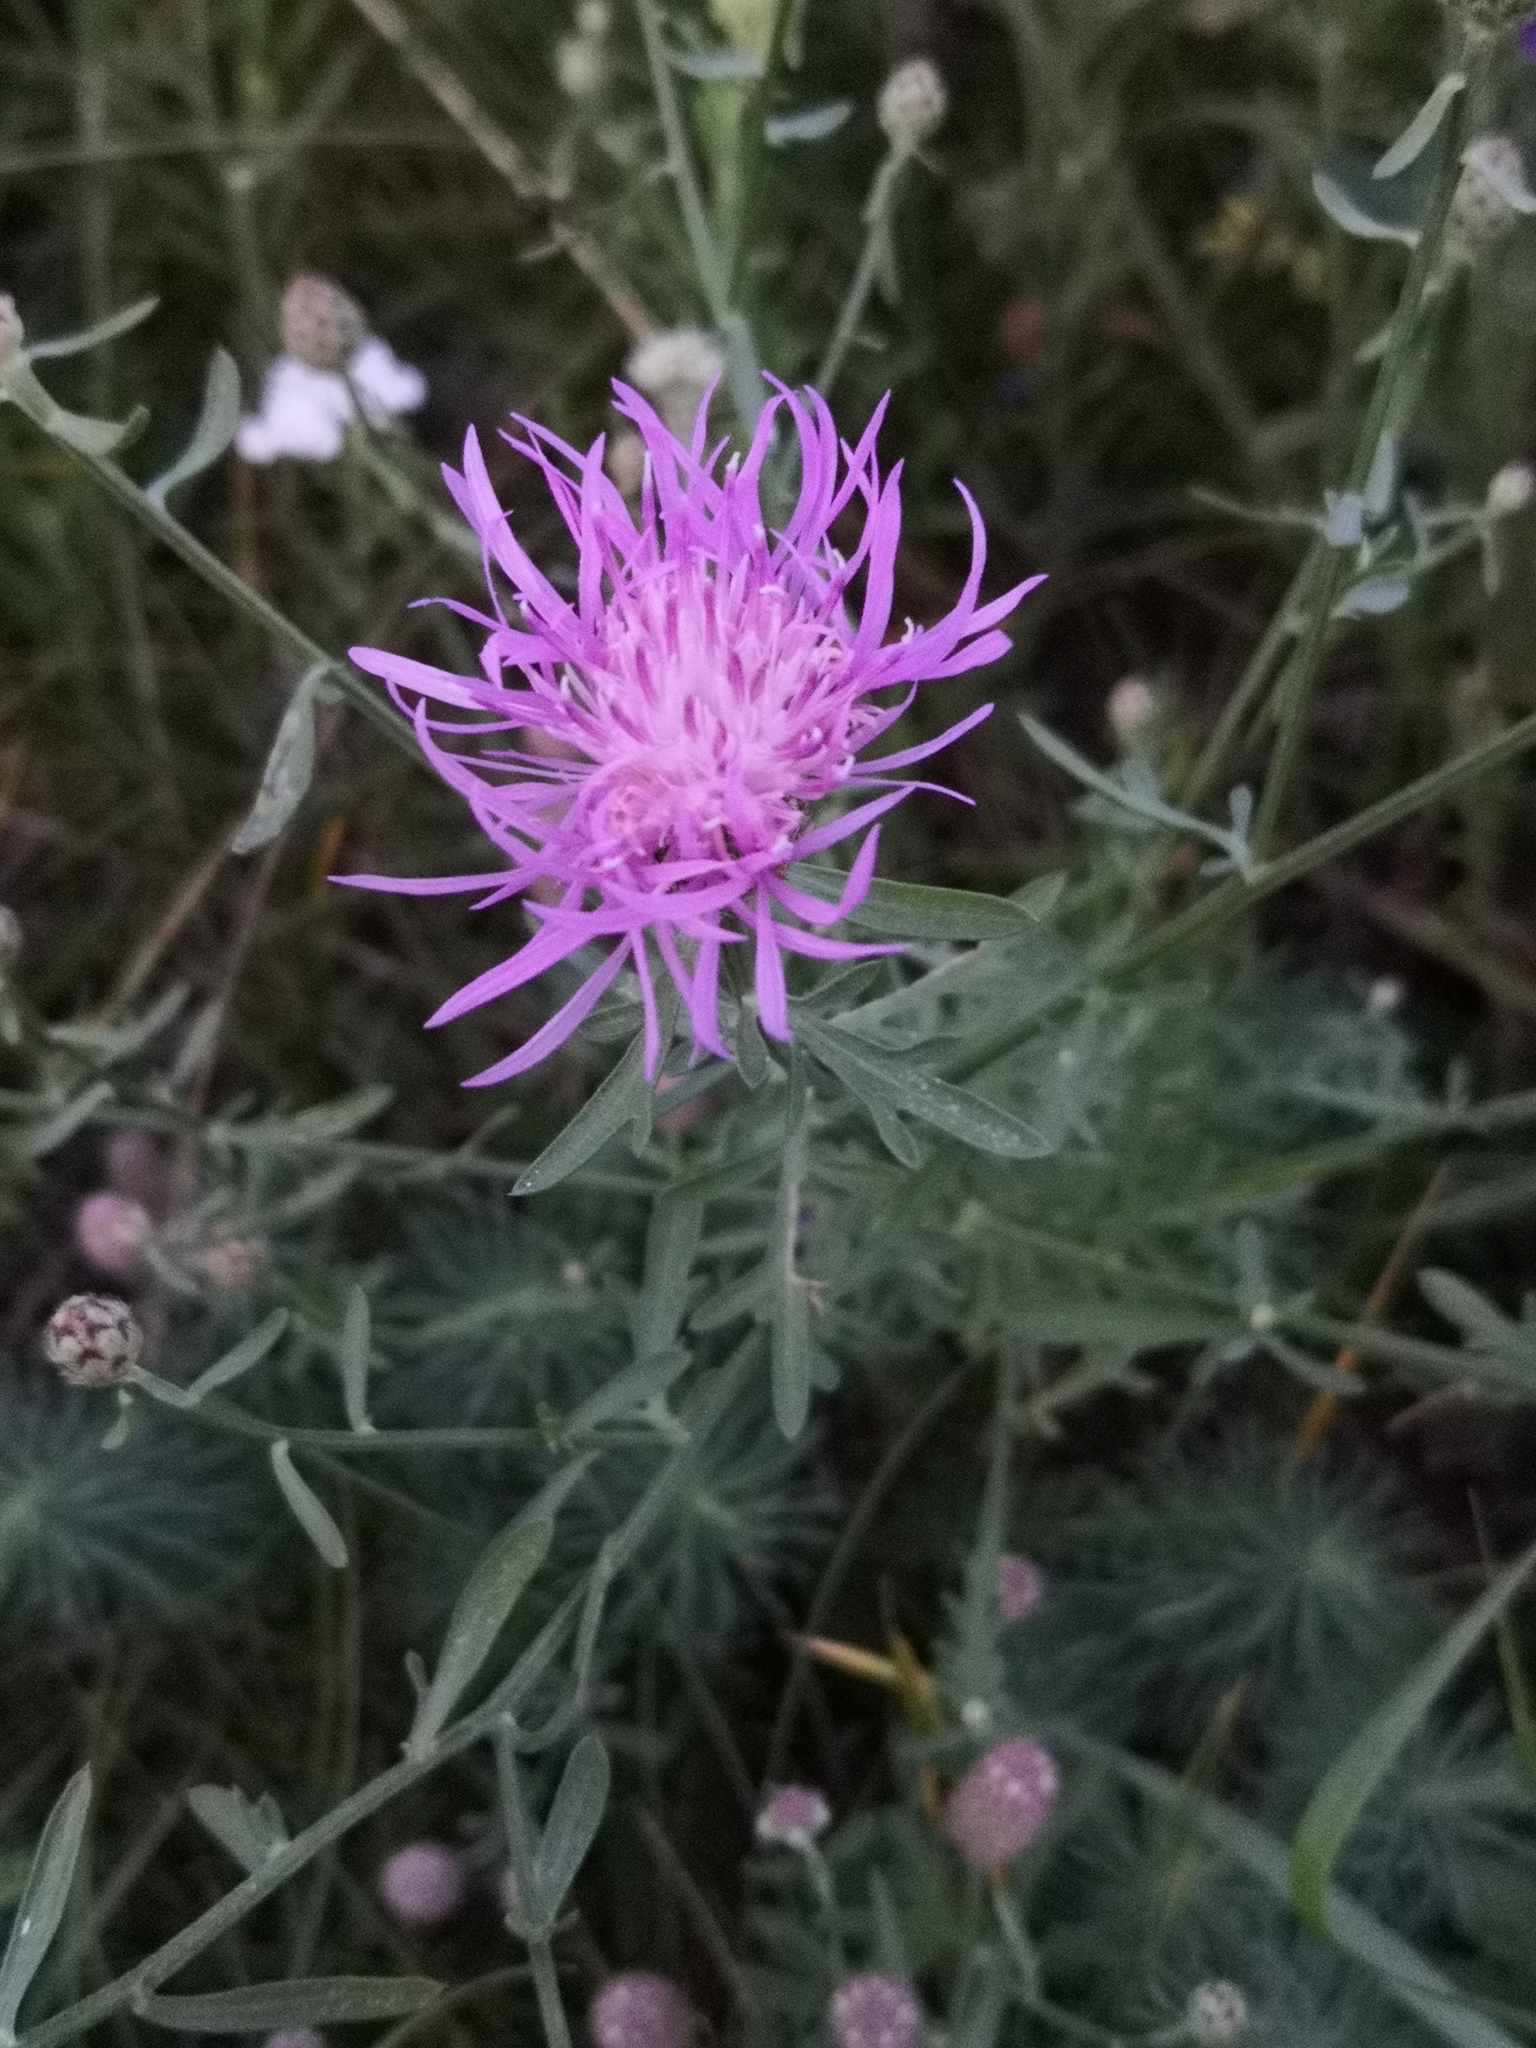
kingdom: Plantae
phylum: Tracheophyta
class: Magnoliopsida
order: Asterales
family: Asteraceae
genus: Centaurea
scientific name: Centaurea stoebe
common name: Spotted knapweed
